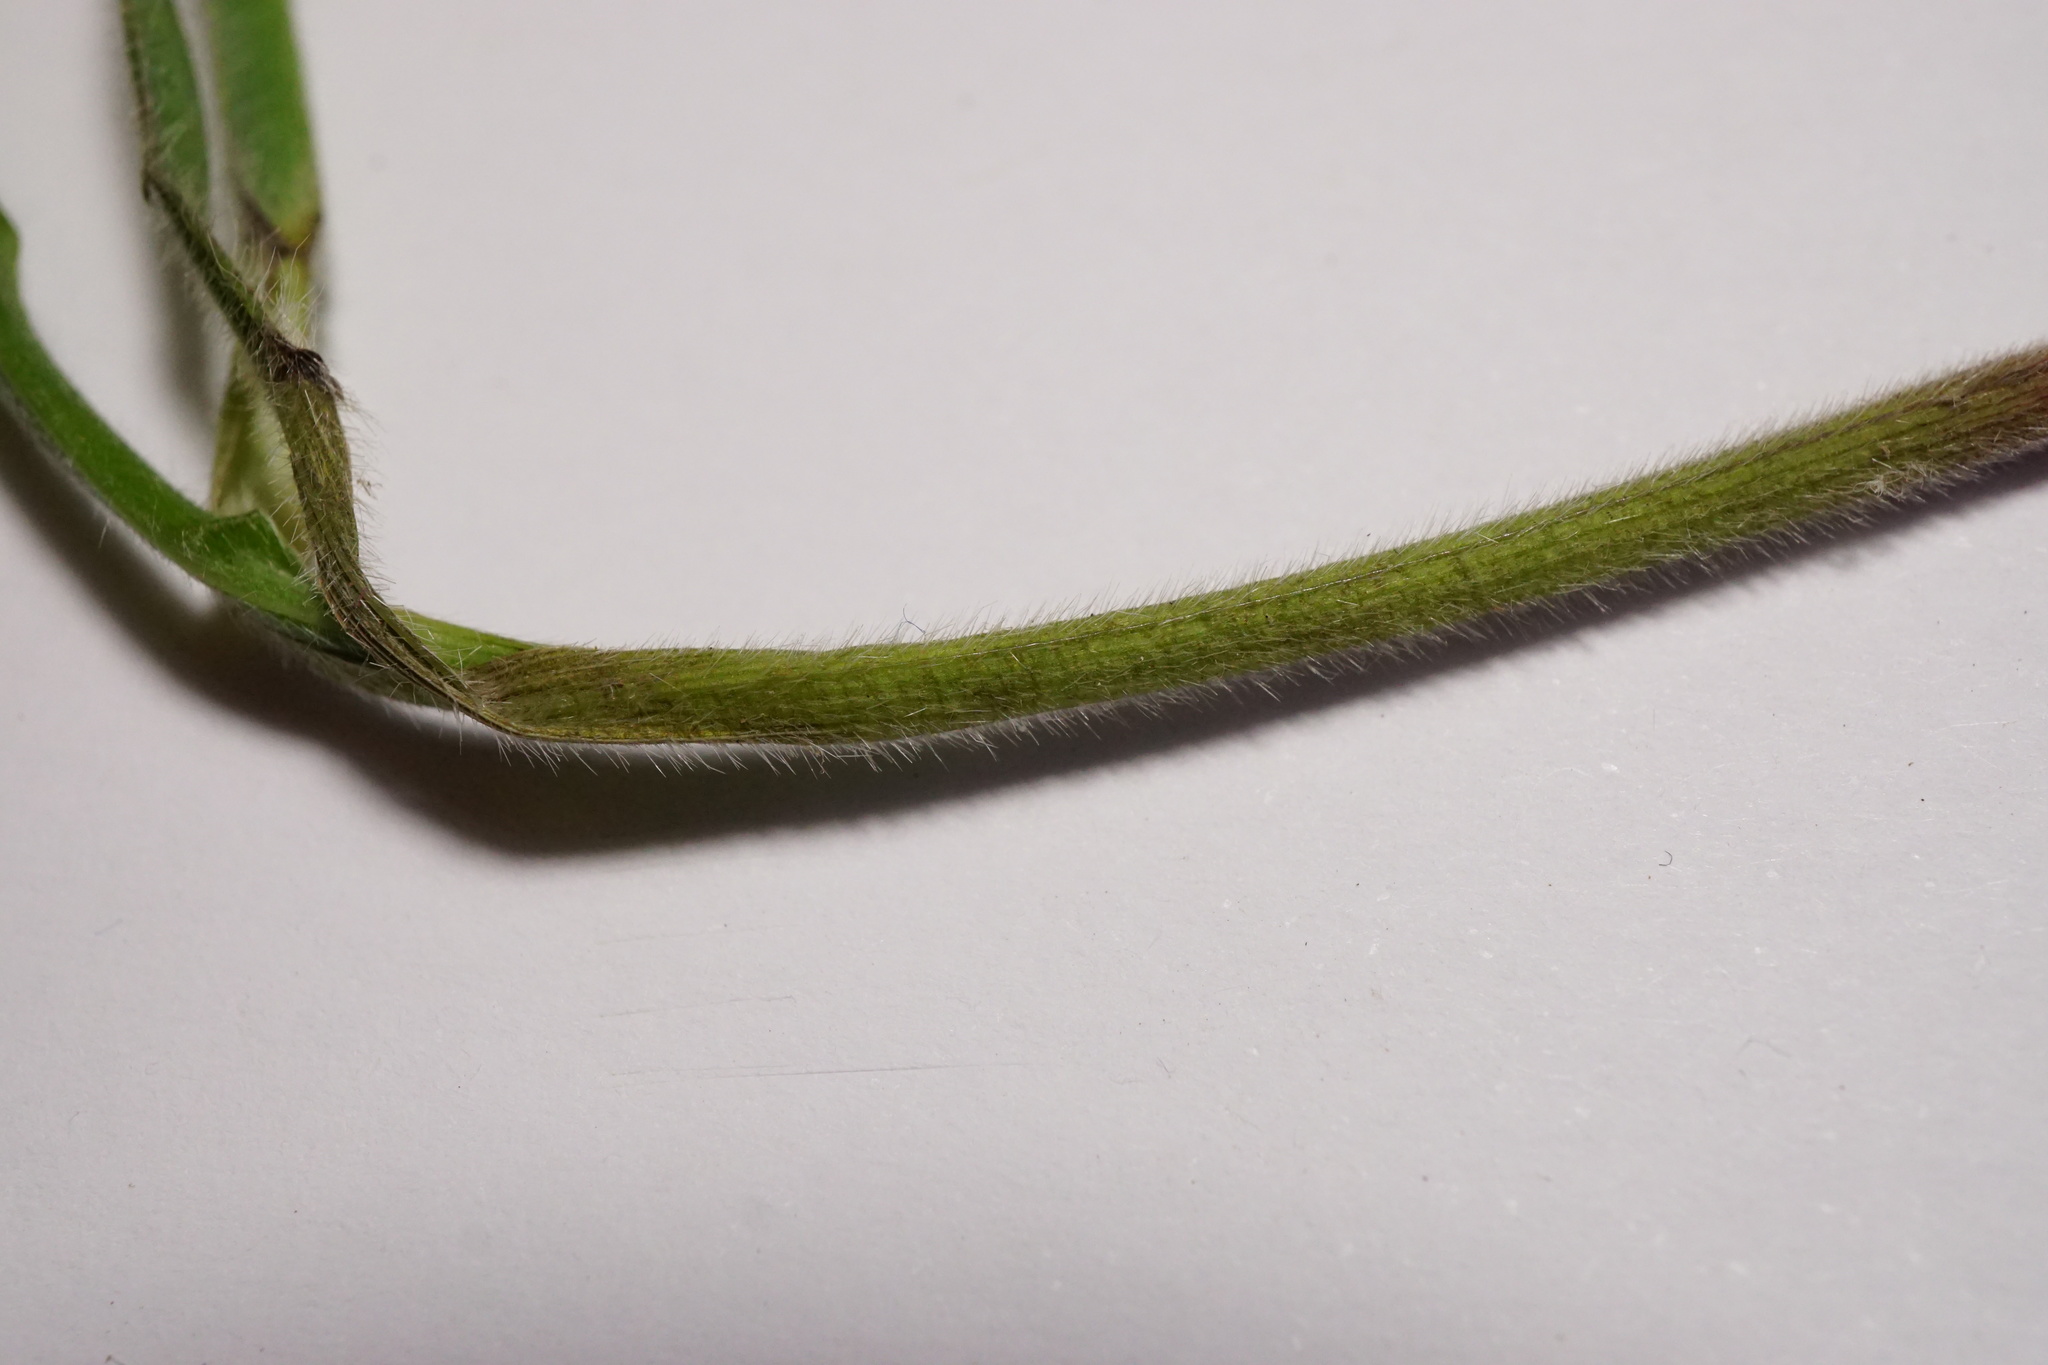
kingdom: Plantae
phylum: Tracheophyta
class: Liliopsida
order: Poales
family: Poaceae
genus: Bromus
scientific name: Bromus benekenii
